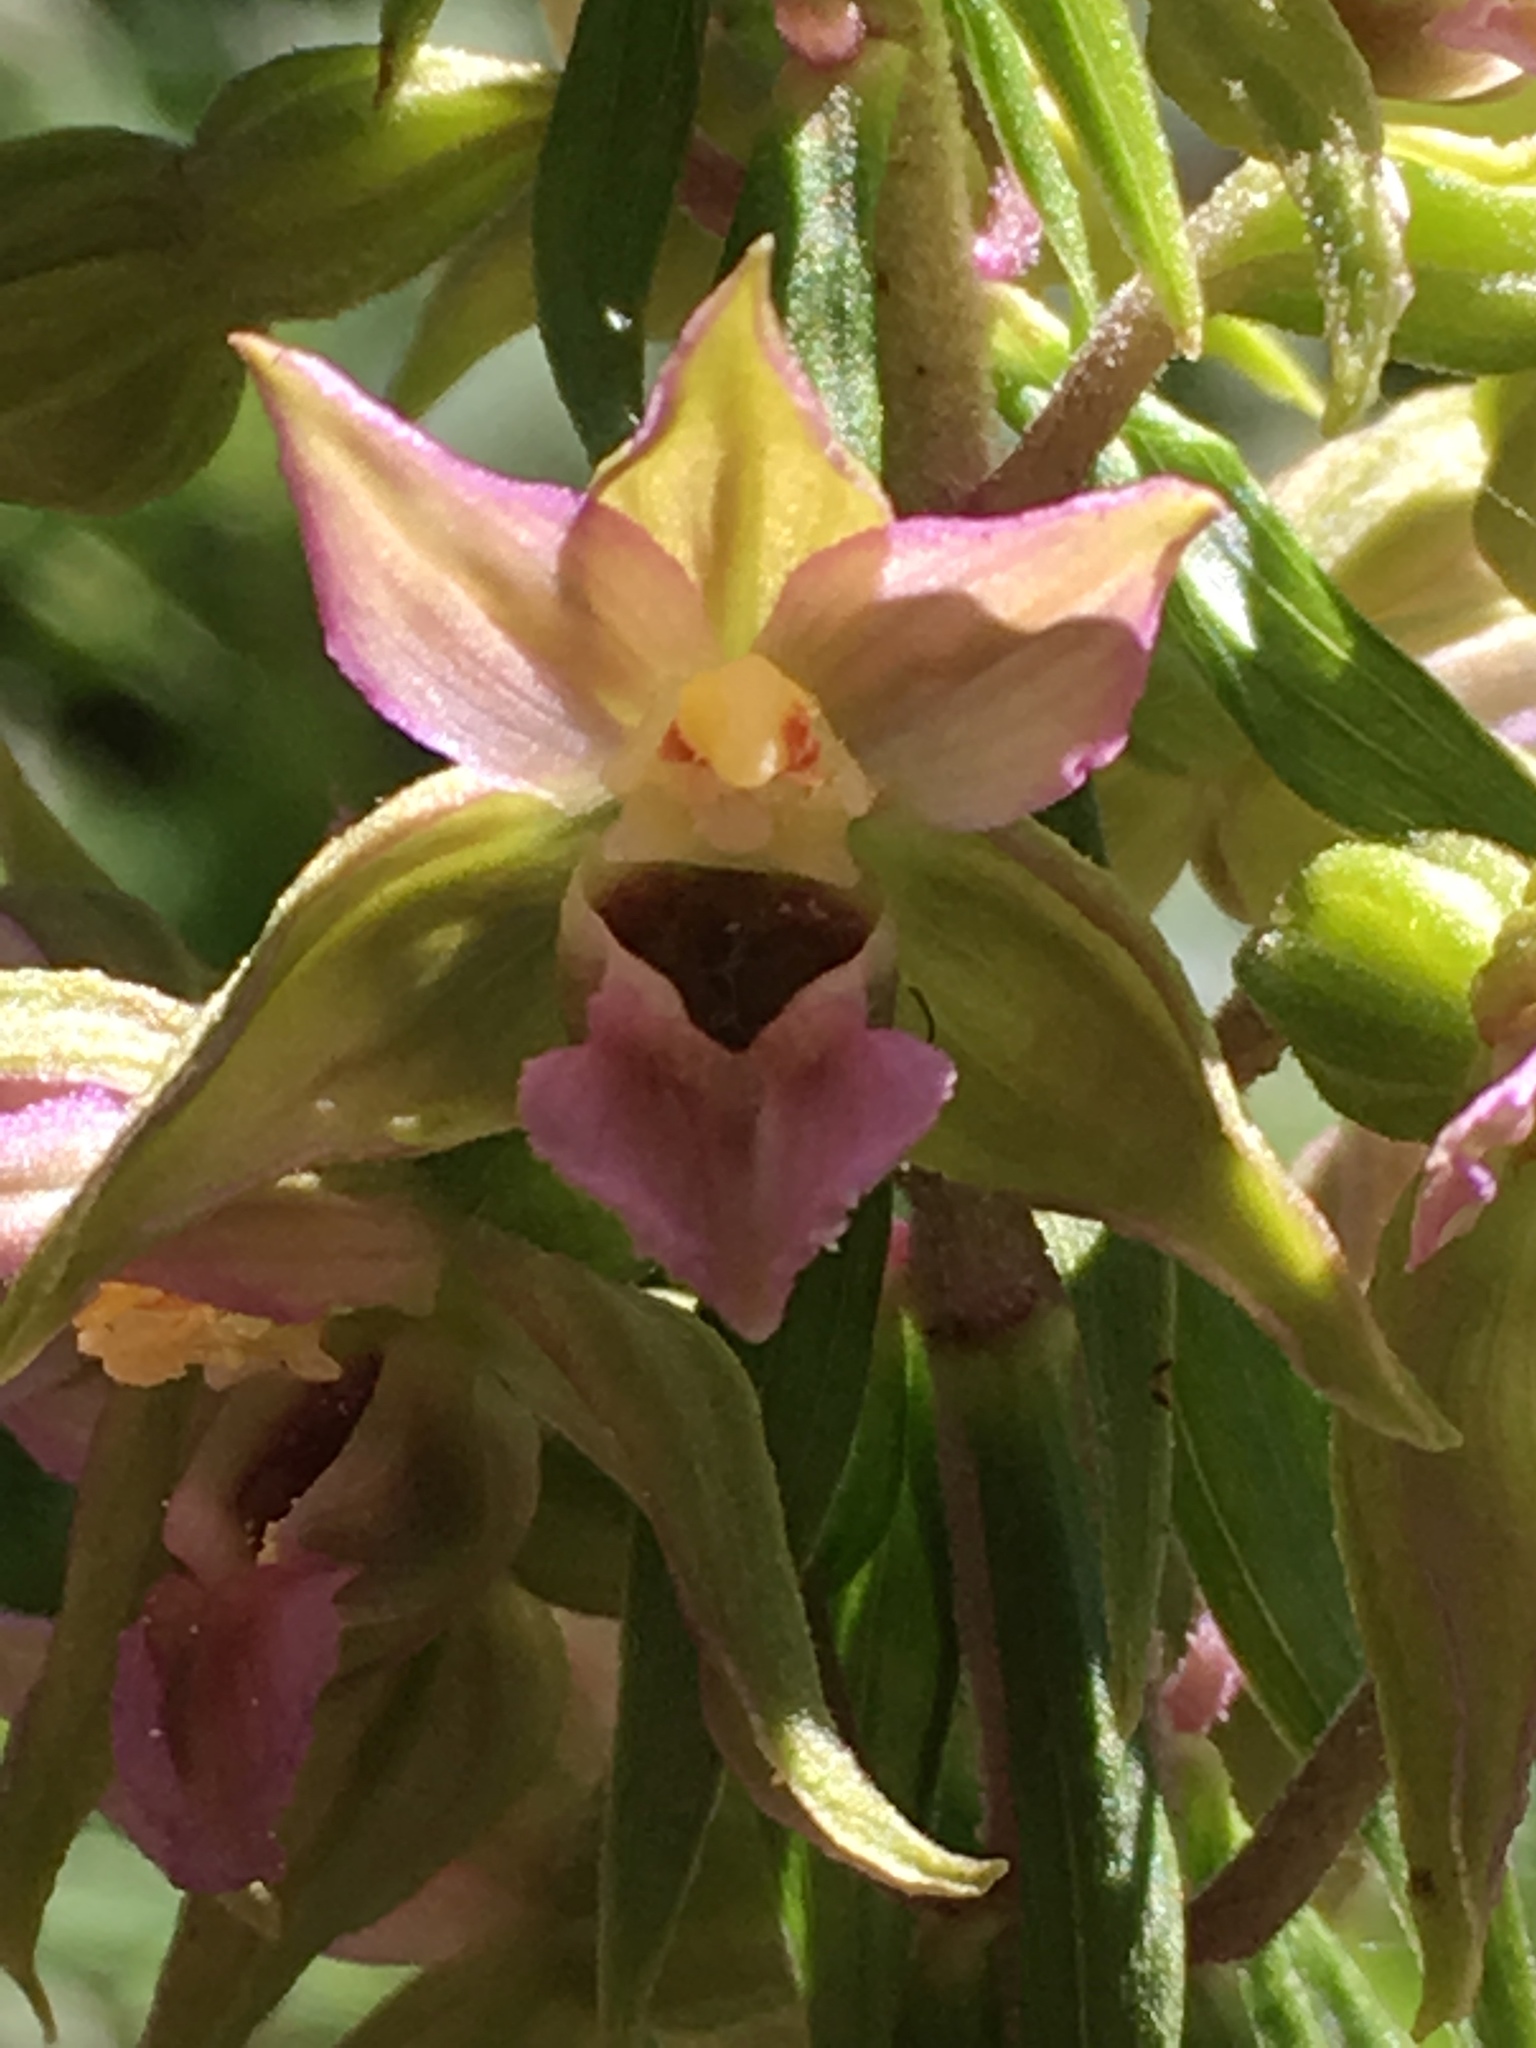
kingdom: Plantae
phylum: Tracheophyta
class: Liliopsida
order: Asparagales
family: Orchidaceae
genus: Epipactis
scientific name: Epipactis helleborine
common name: Broad-leaved helleborine
